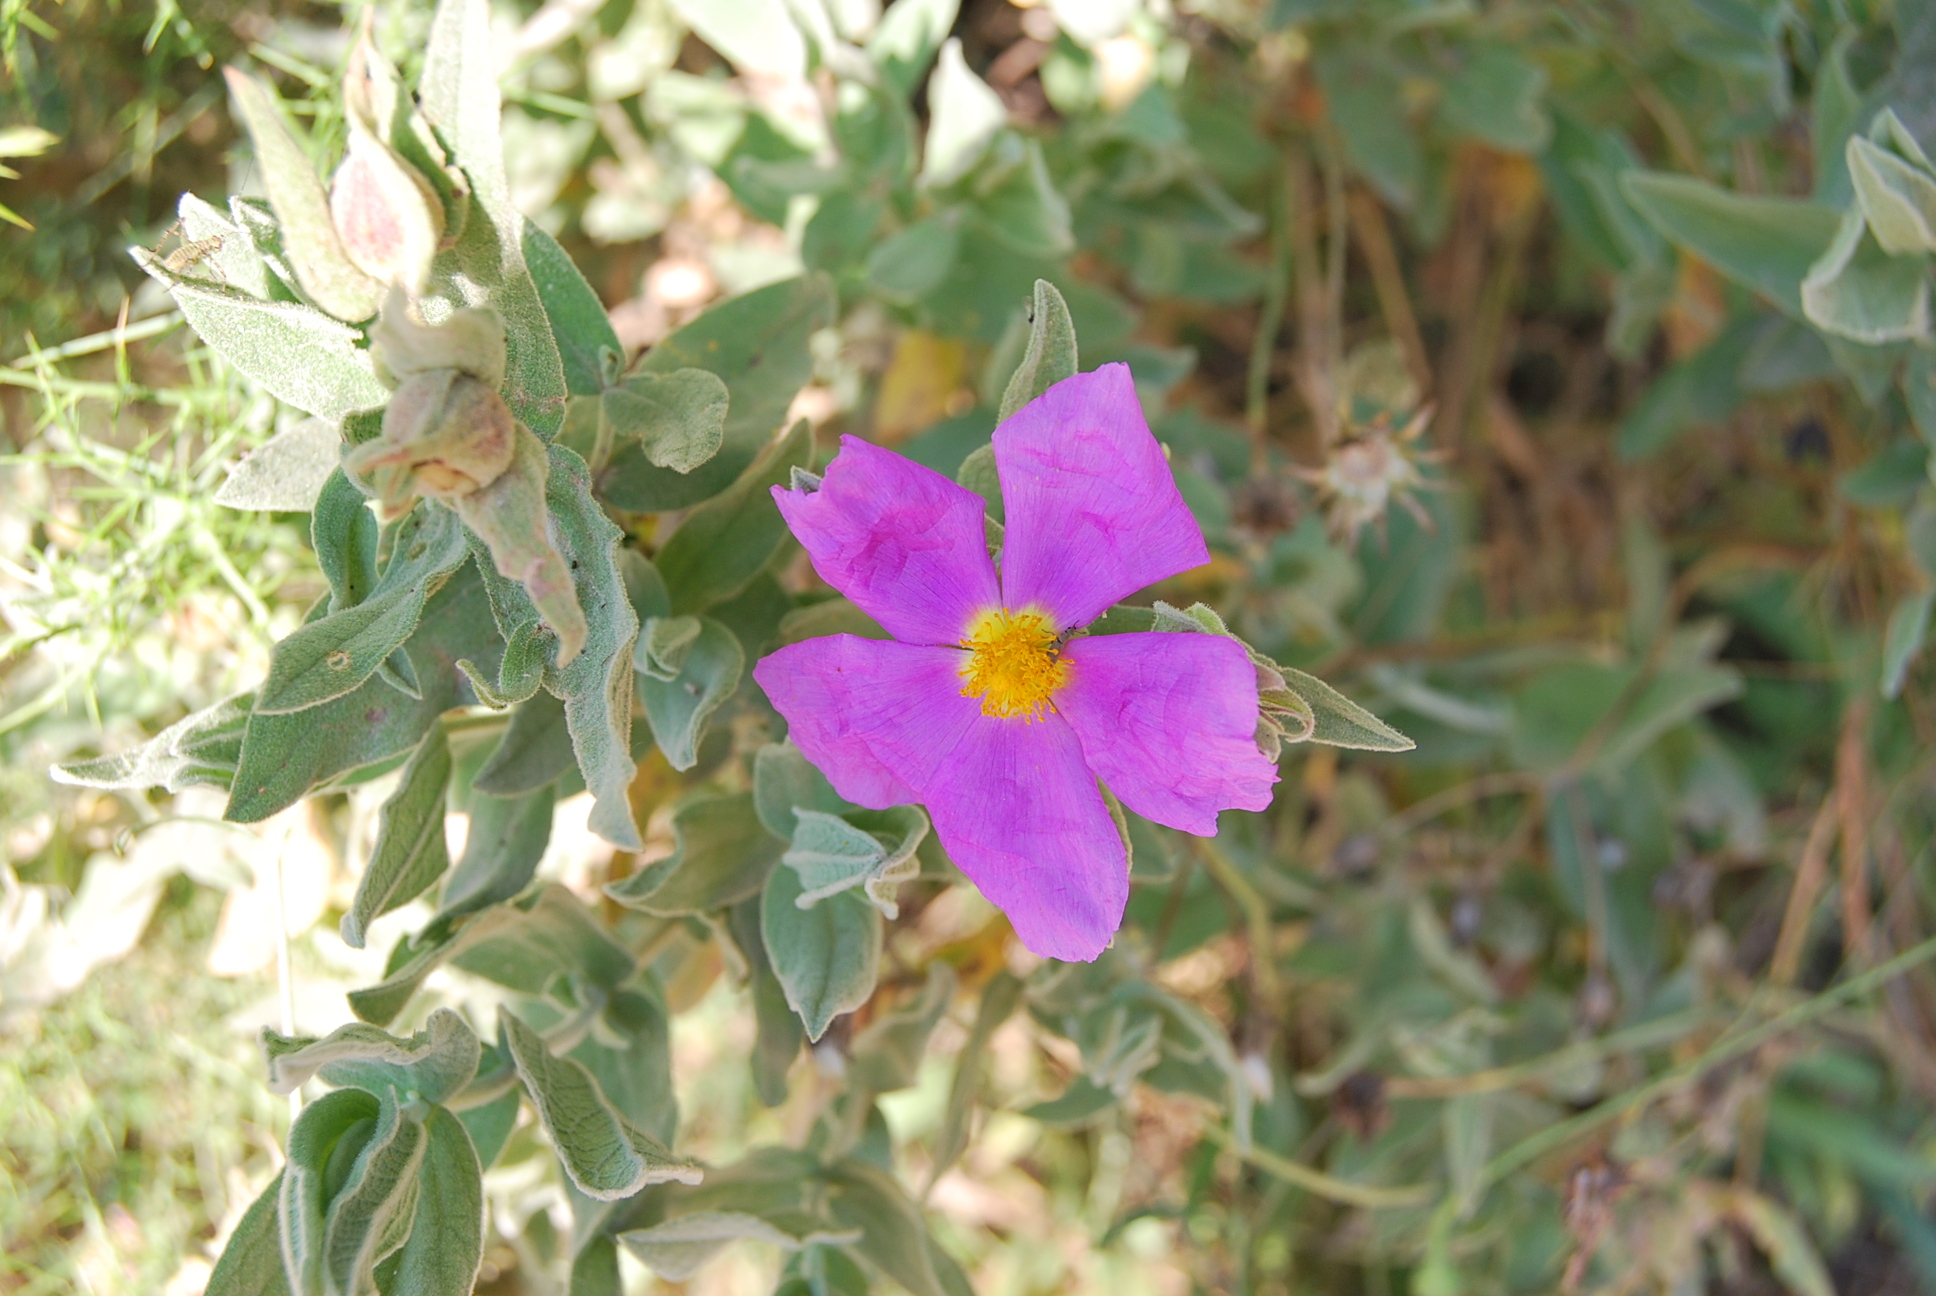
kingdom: Plantae
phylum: Tracheophyta
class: Magnoliopsida
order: Malvales
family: Cistaceae
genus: Cistus
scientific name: Cistus albidus
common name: White-leaf rock-rose
